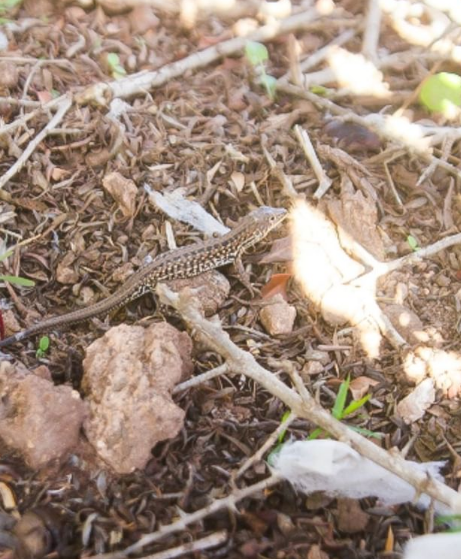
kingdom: Animalia
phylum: Chordata
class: Squamata
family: Lacertidae
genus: Acanthodactylus
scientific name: Acanthodactylus margaritae
